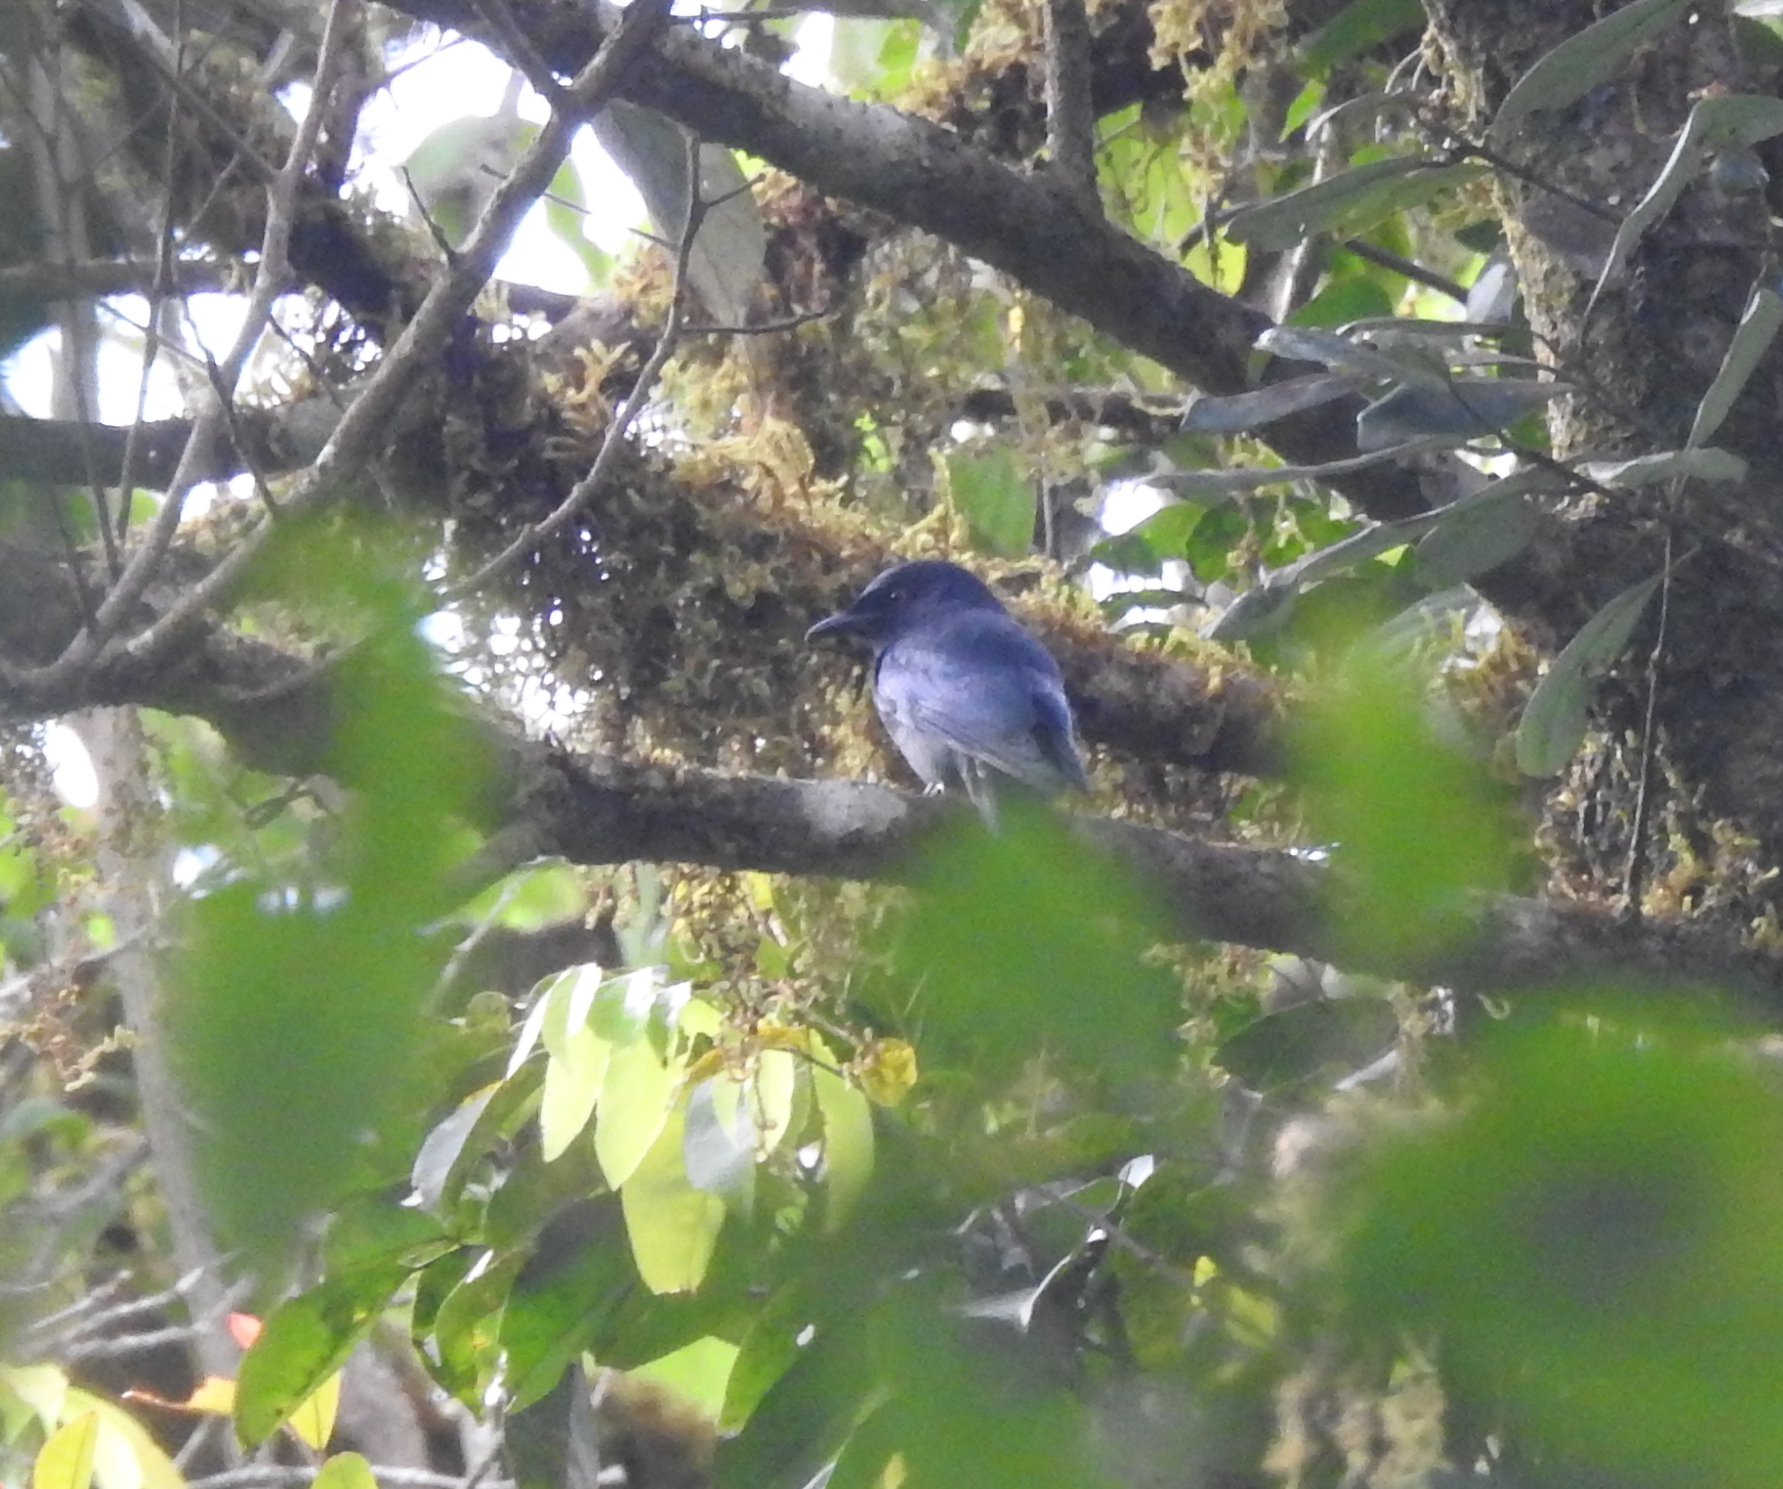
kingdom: Animalia
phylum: Chordata
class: Aves
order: Accipitriformes
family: Accipitridae
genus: Hieraaetus
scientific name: Hieraaetus pennatus
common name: Booted eagle
